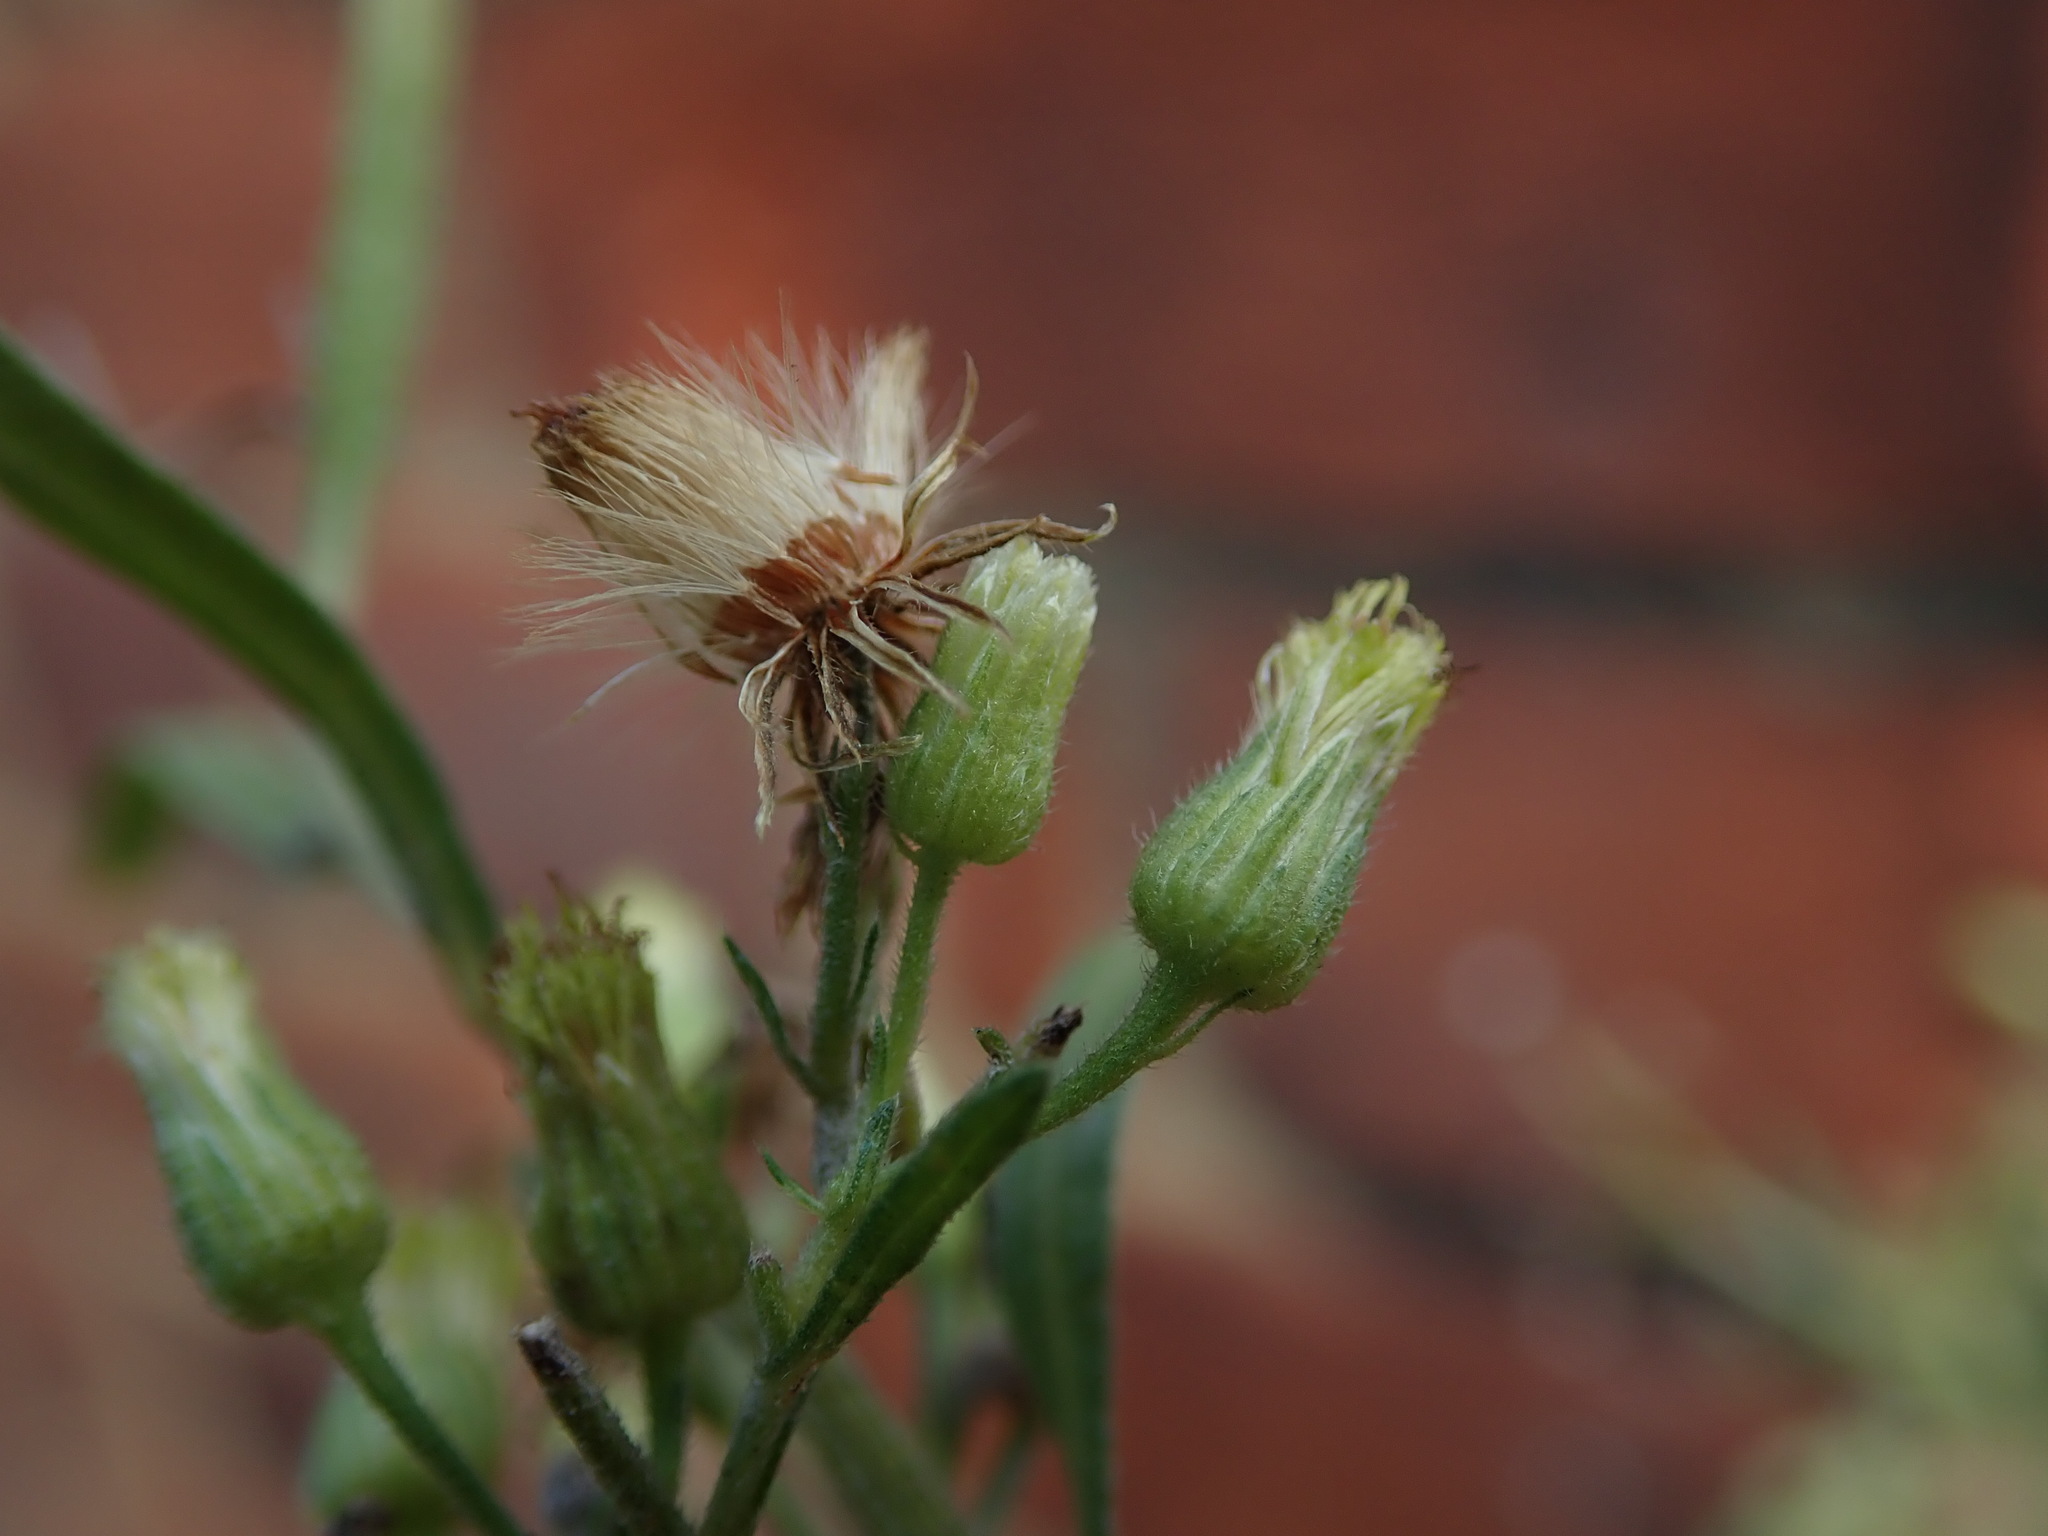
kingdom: Plantae
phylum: Tracheophyta
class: Magnoliopsida
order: Asterales
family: Asteraceae
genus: Erigeron
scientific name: Erigeron sumatrensis
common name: Daisy
